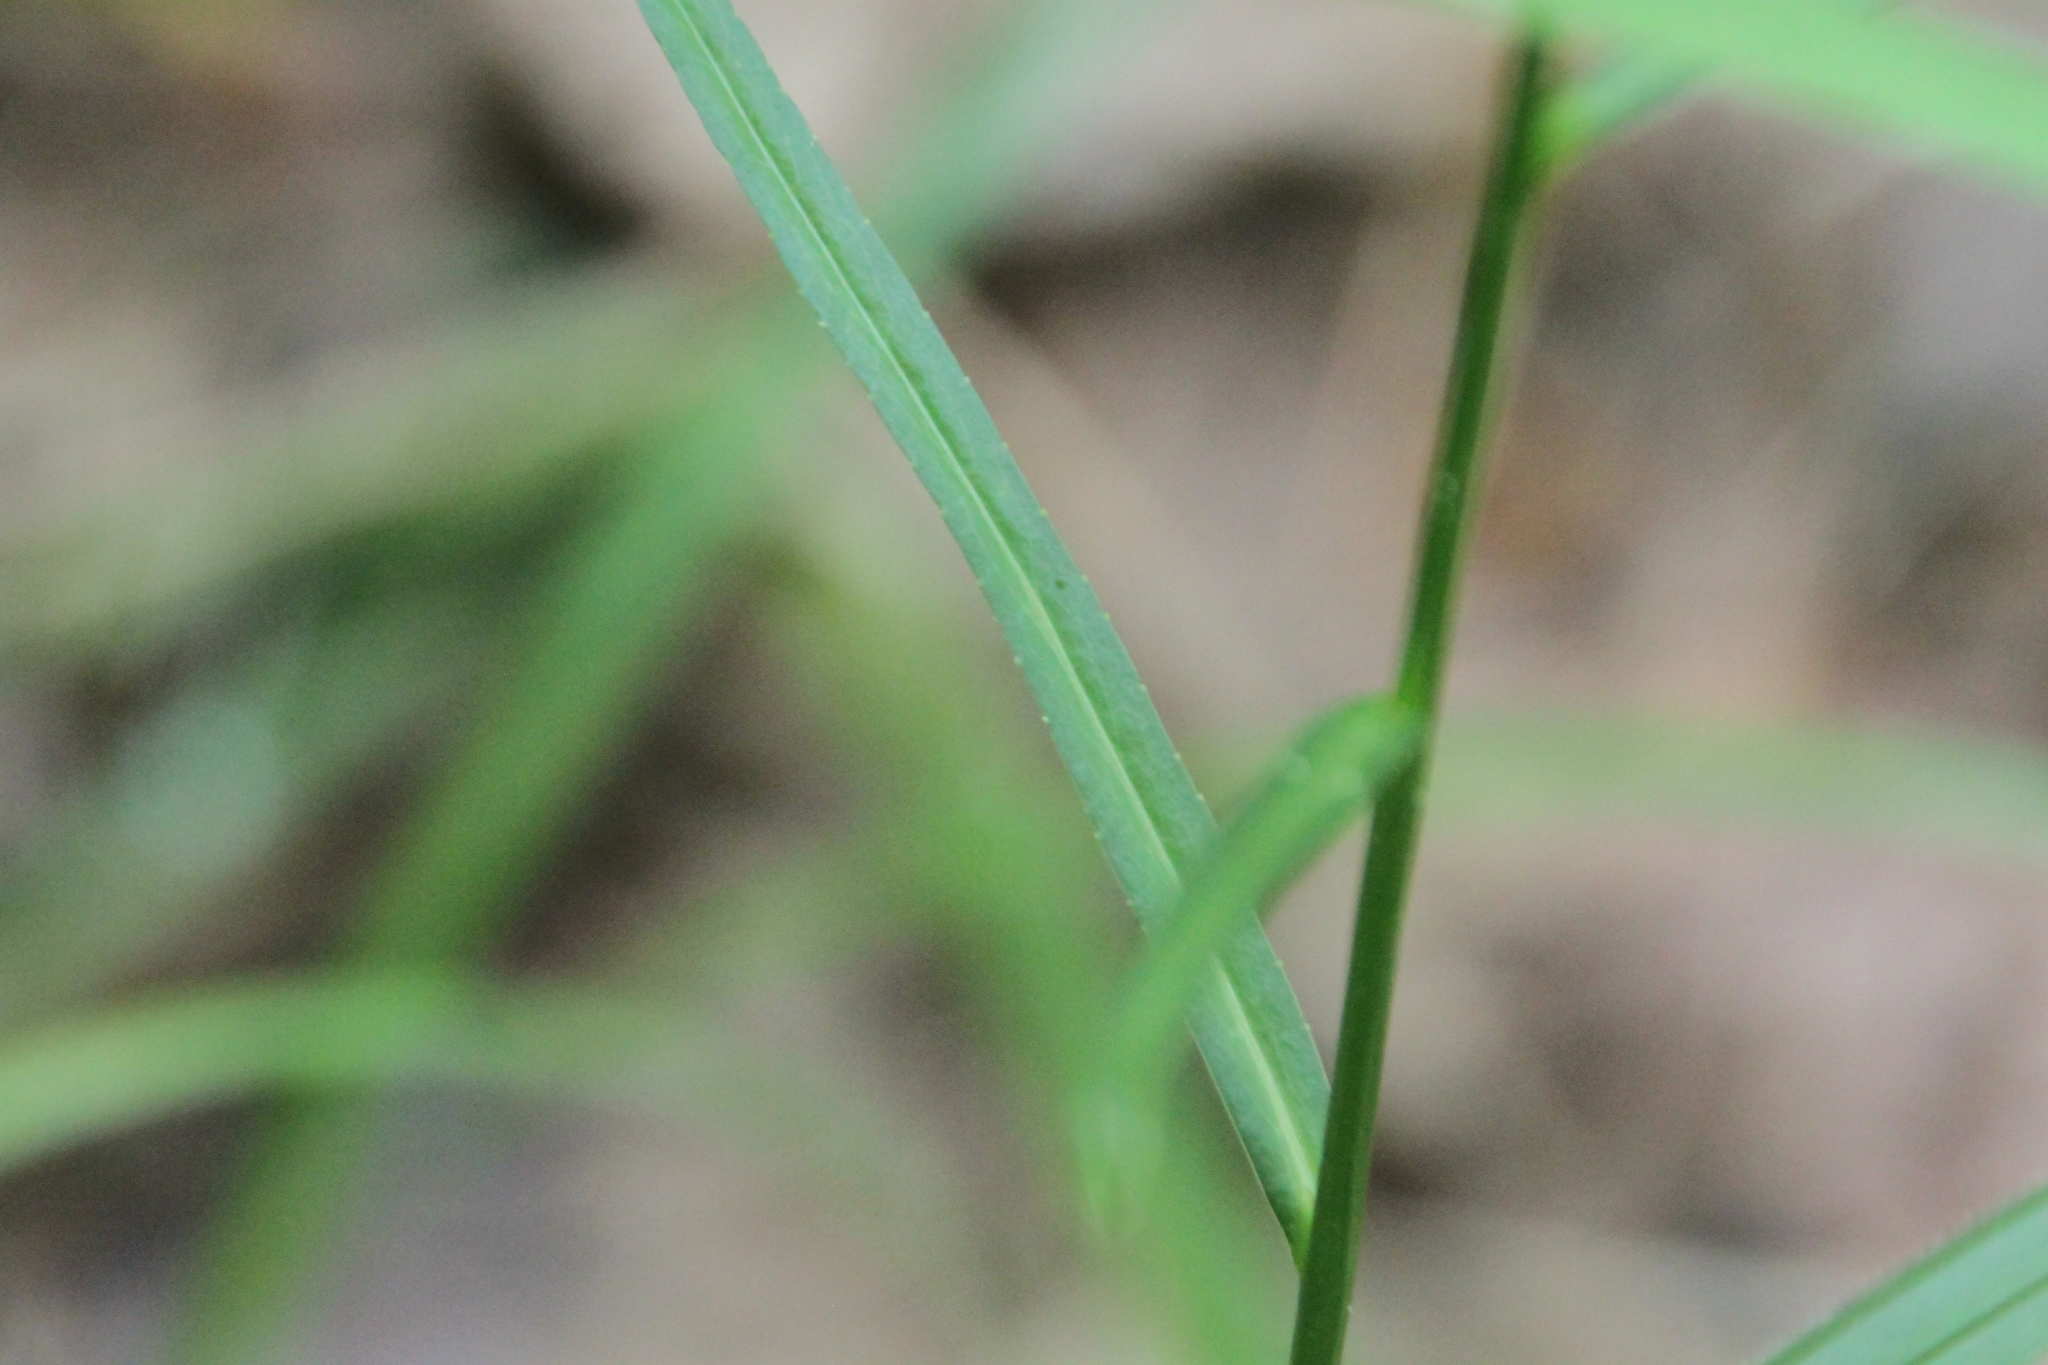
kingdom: Plantae
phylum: Tracheophyta
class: Magnoliopsida
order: Asterales
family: Campanulaceae
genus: Campanula
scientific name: Campanula persicifolia
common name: Peach-leaved bellflower
